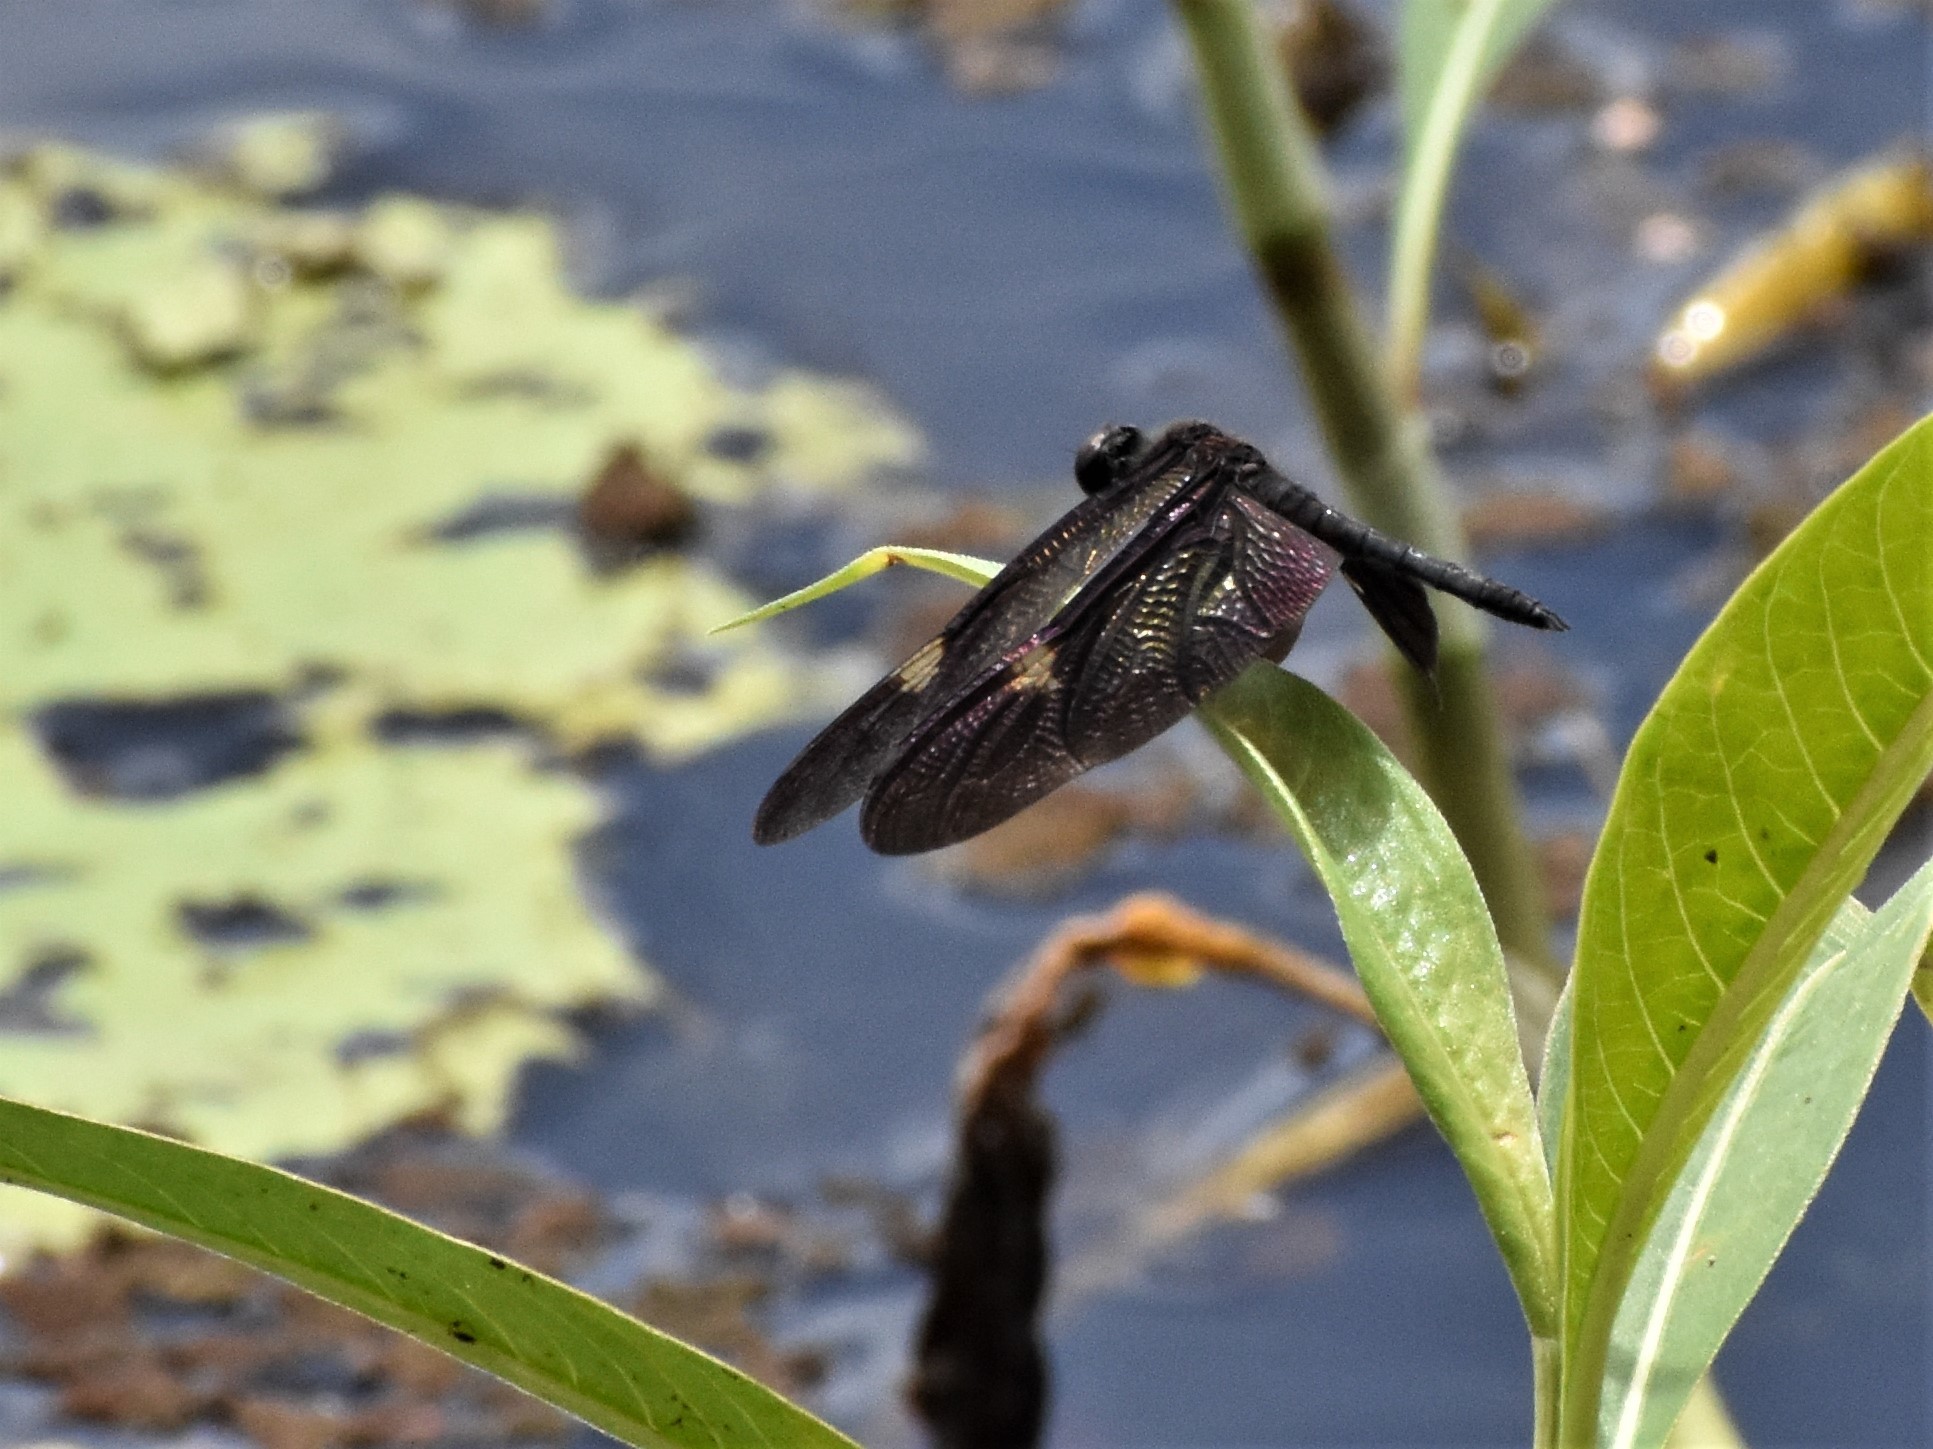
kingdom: Animalia
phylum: Arthropoda
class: Insecta
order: Odonata
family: Libellulidae
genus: Rhyothemis
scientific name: Rhyothemis princeps
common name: Sapphire flutterer
